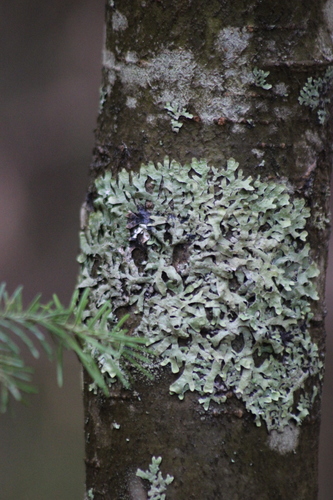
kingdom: Fungi
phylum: Ascomycota
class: Lecanoromycetes
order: Lecanorales
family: Parmeliaceae
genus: Parmelia
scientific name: Parmelia
